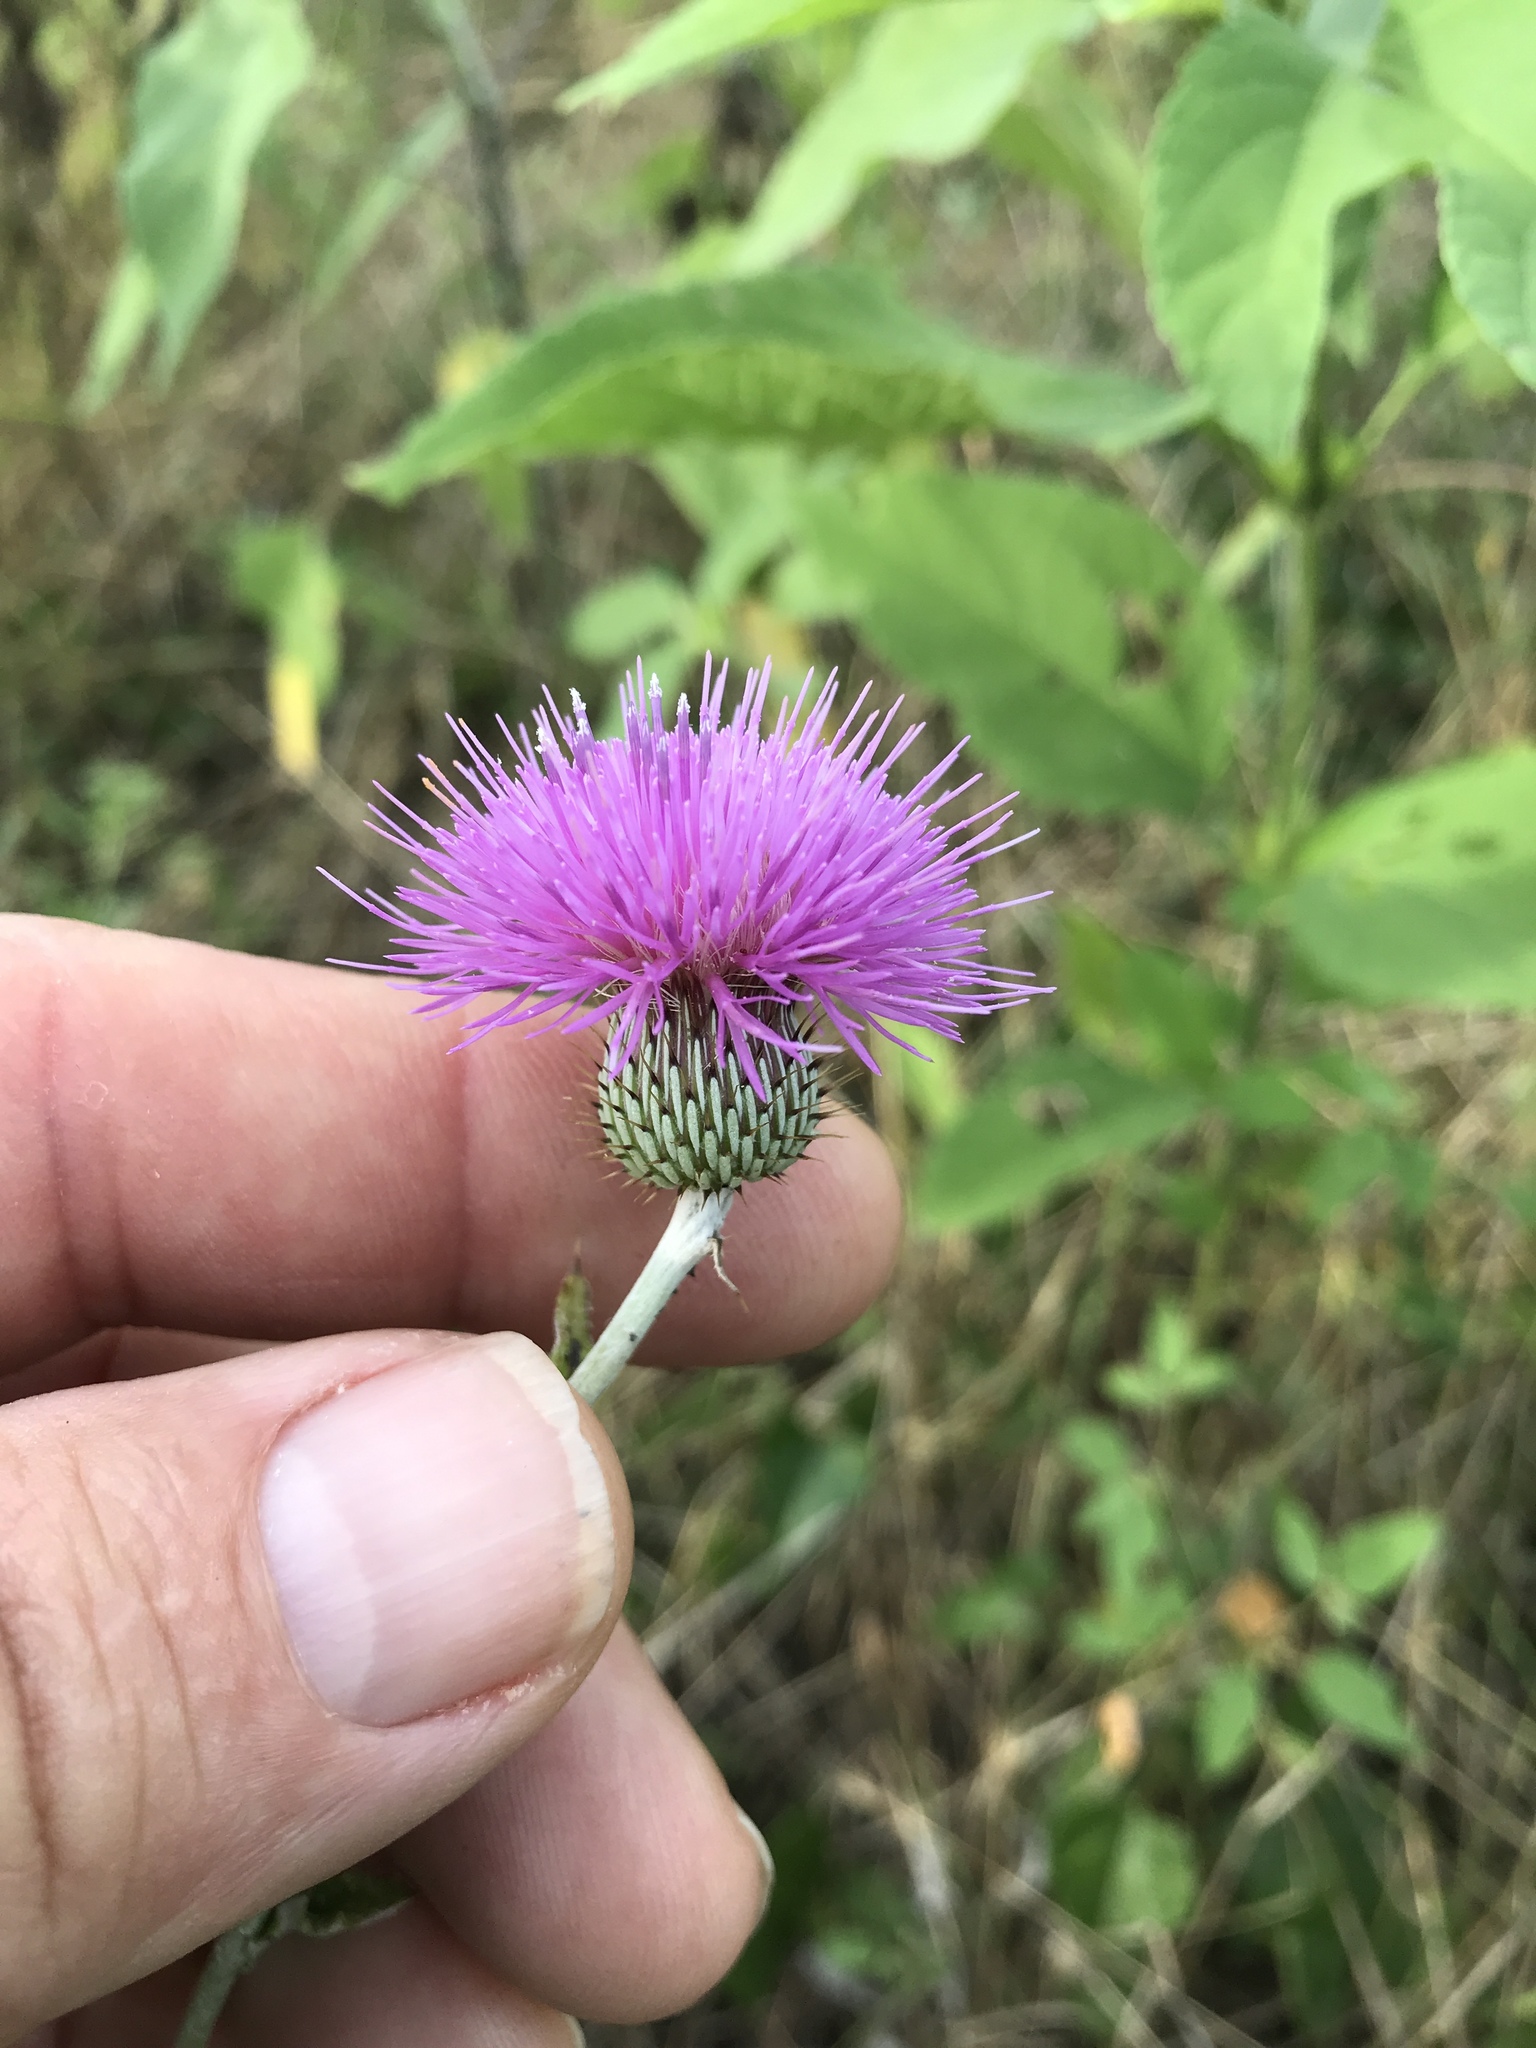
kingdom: Plantae
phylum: Tracheophyta
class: Magnoliopsida
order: Asterales
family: Asteraceae
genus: Cirsium
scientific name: Cirsium texanum
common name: Texas purple thistle
